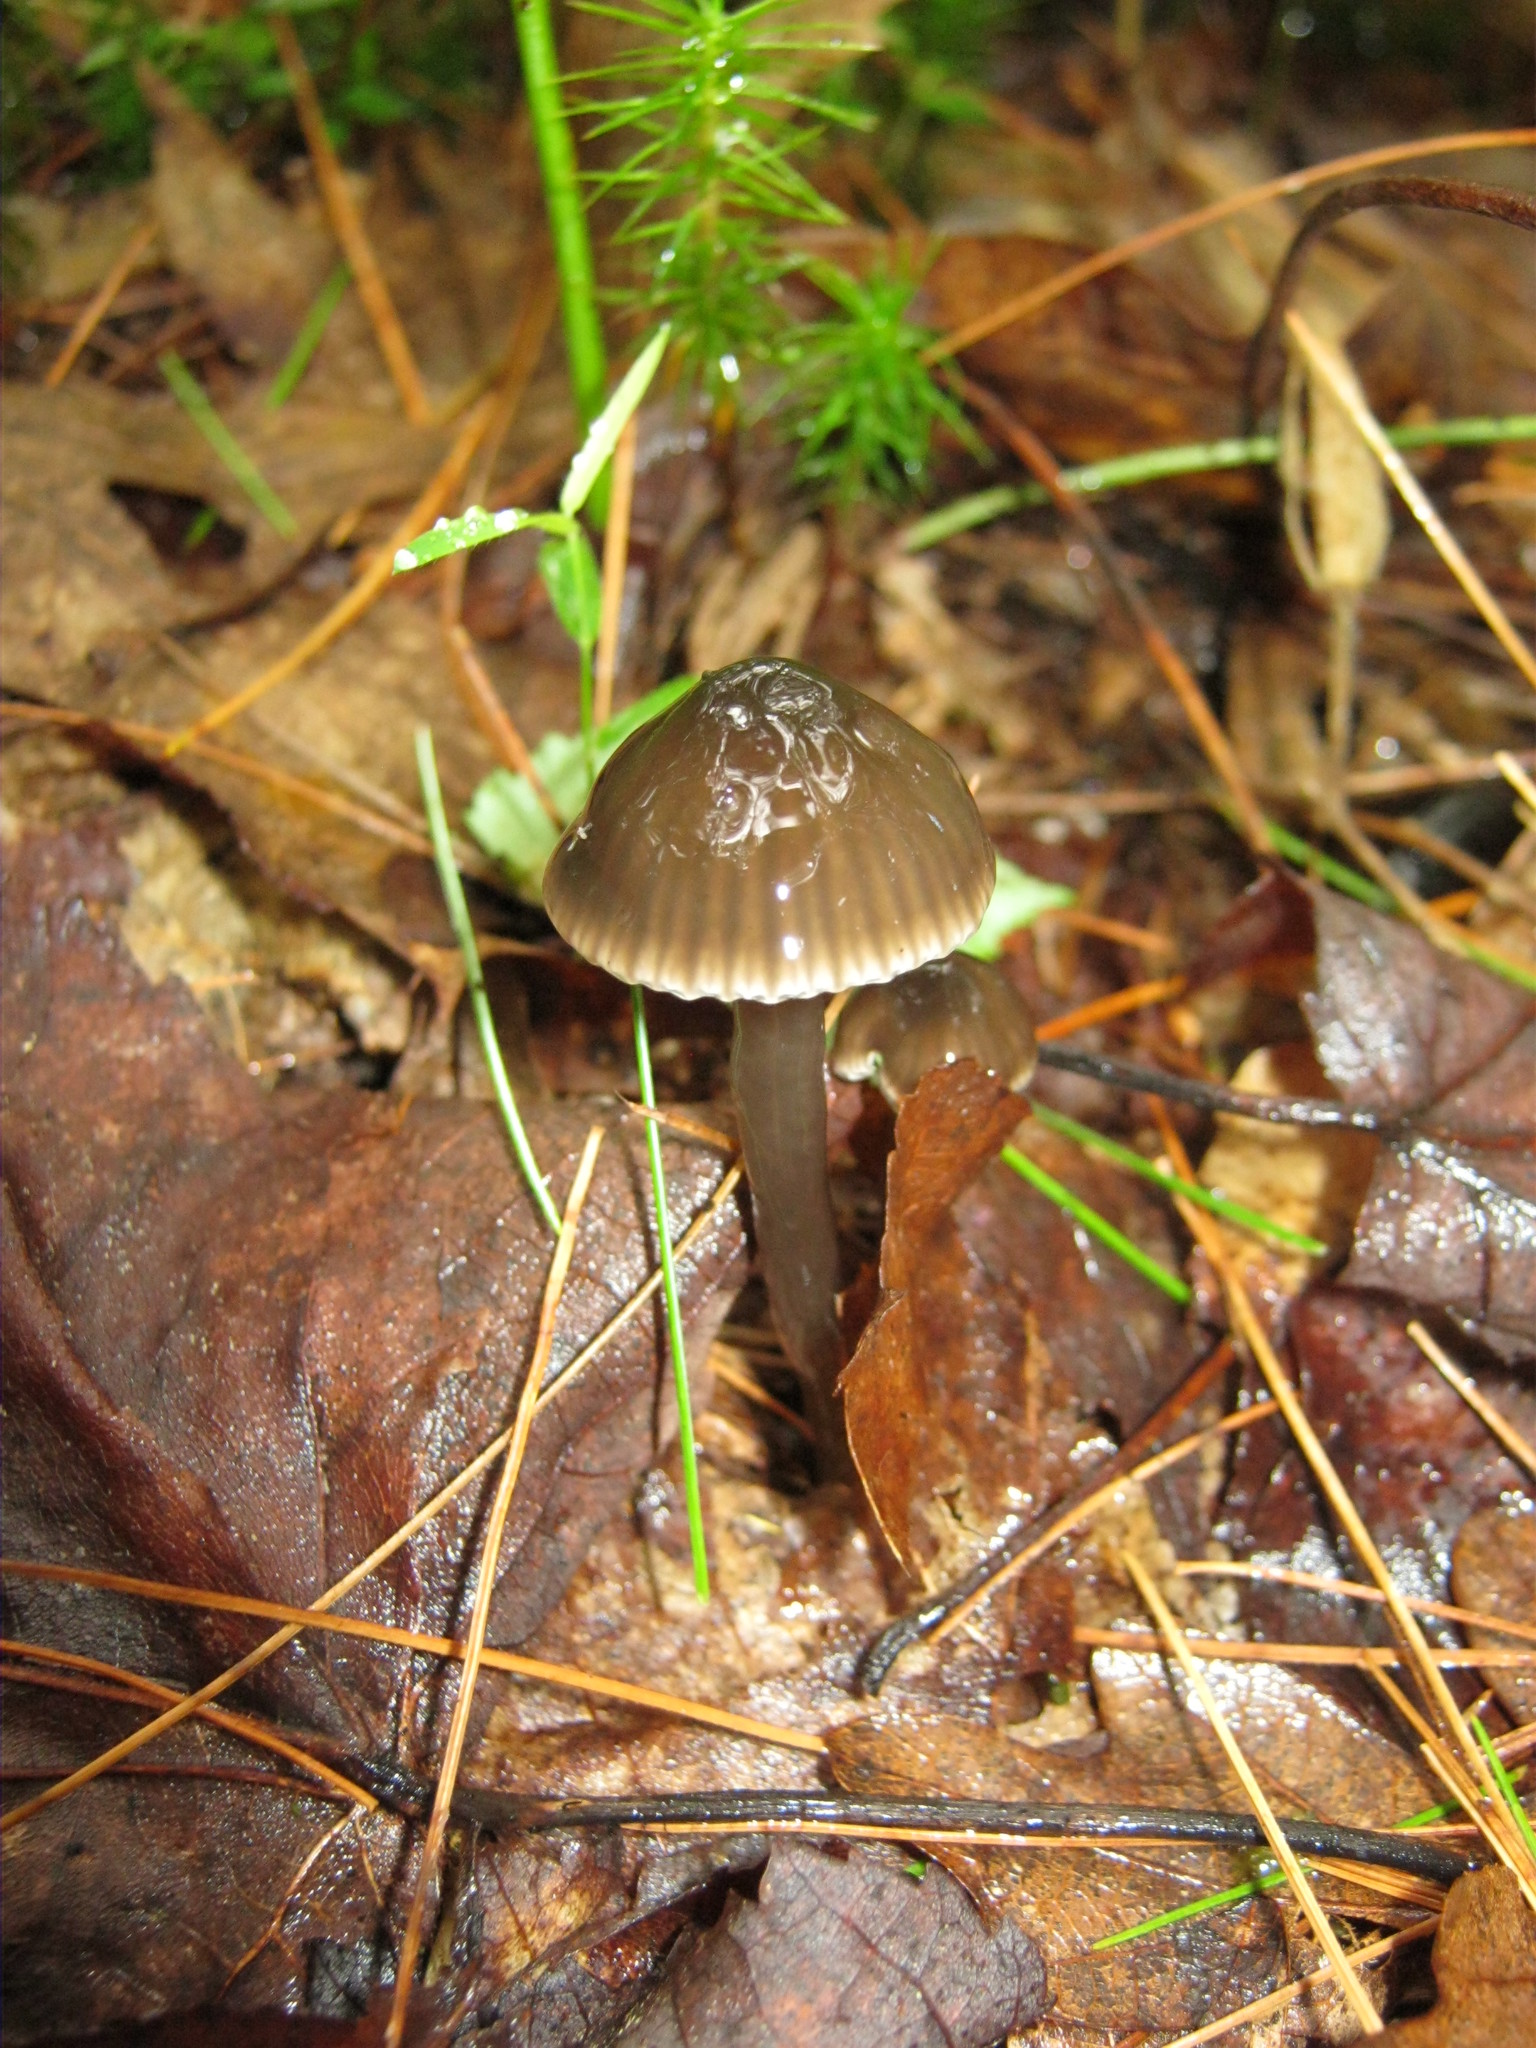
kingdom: Fungi
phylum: Basidiomycota
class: Agaricomycetes
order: Agaricales
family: Hygrophoraceae
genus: Gliophorus
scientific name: Gliophorus irrigatus
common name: Slimy waxcap
